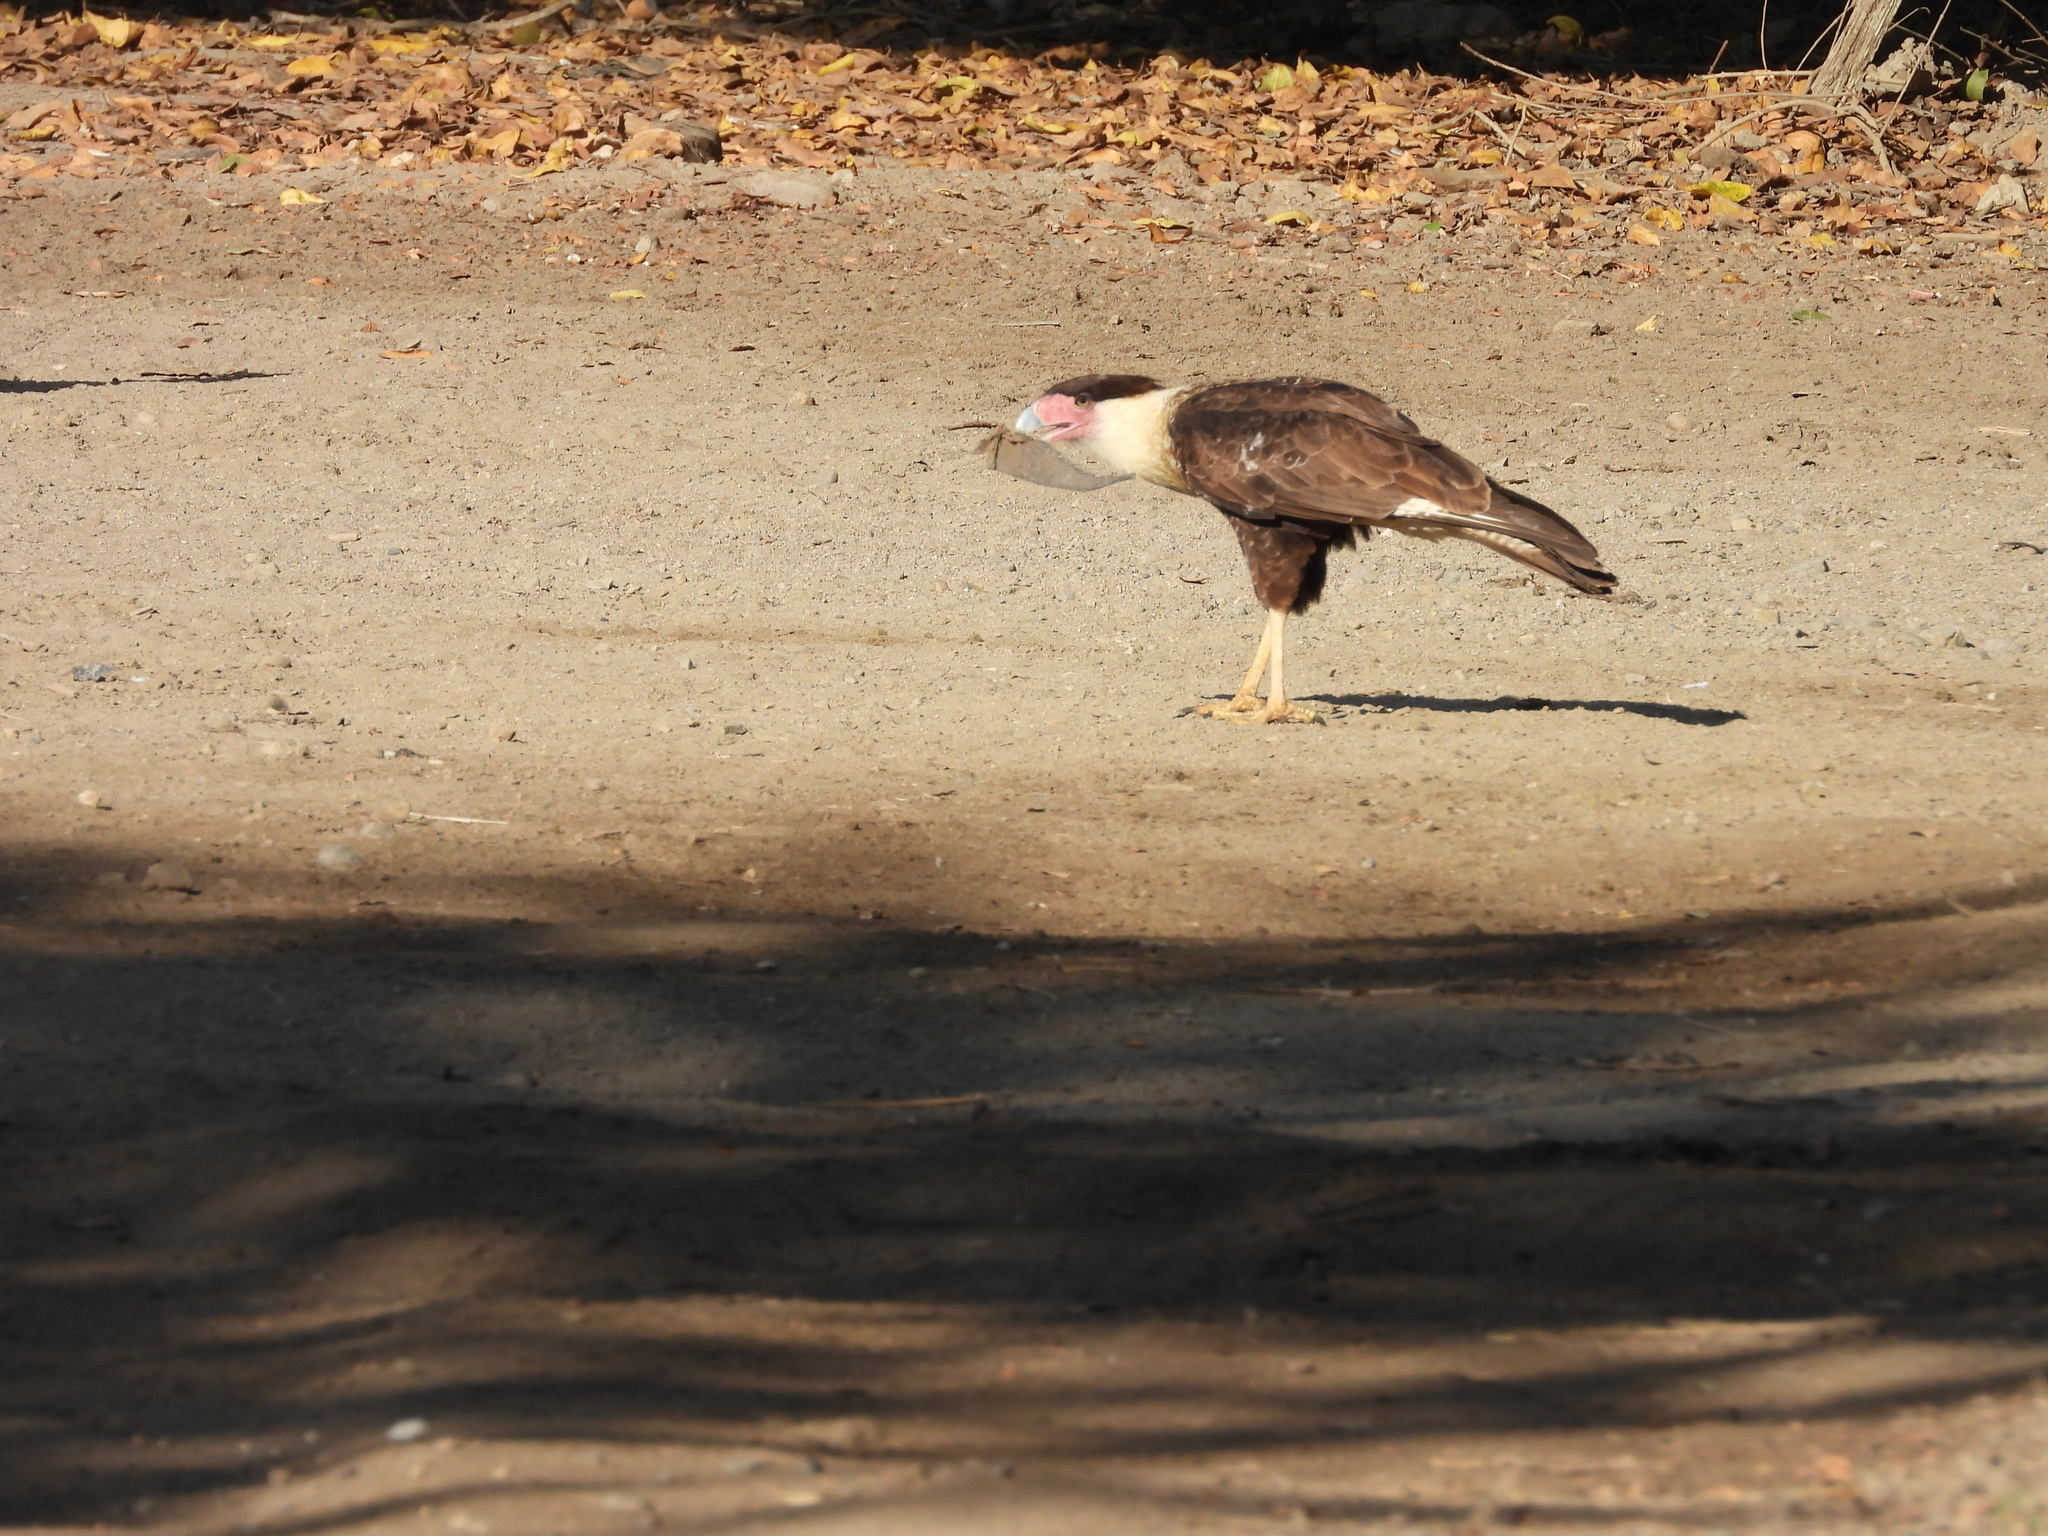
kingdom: Animalia
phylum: Chordata
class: Aves
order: Falconiformes
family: Falconidae
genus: Caracara
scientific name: Caracara plancus
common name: Southern caracara
